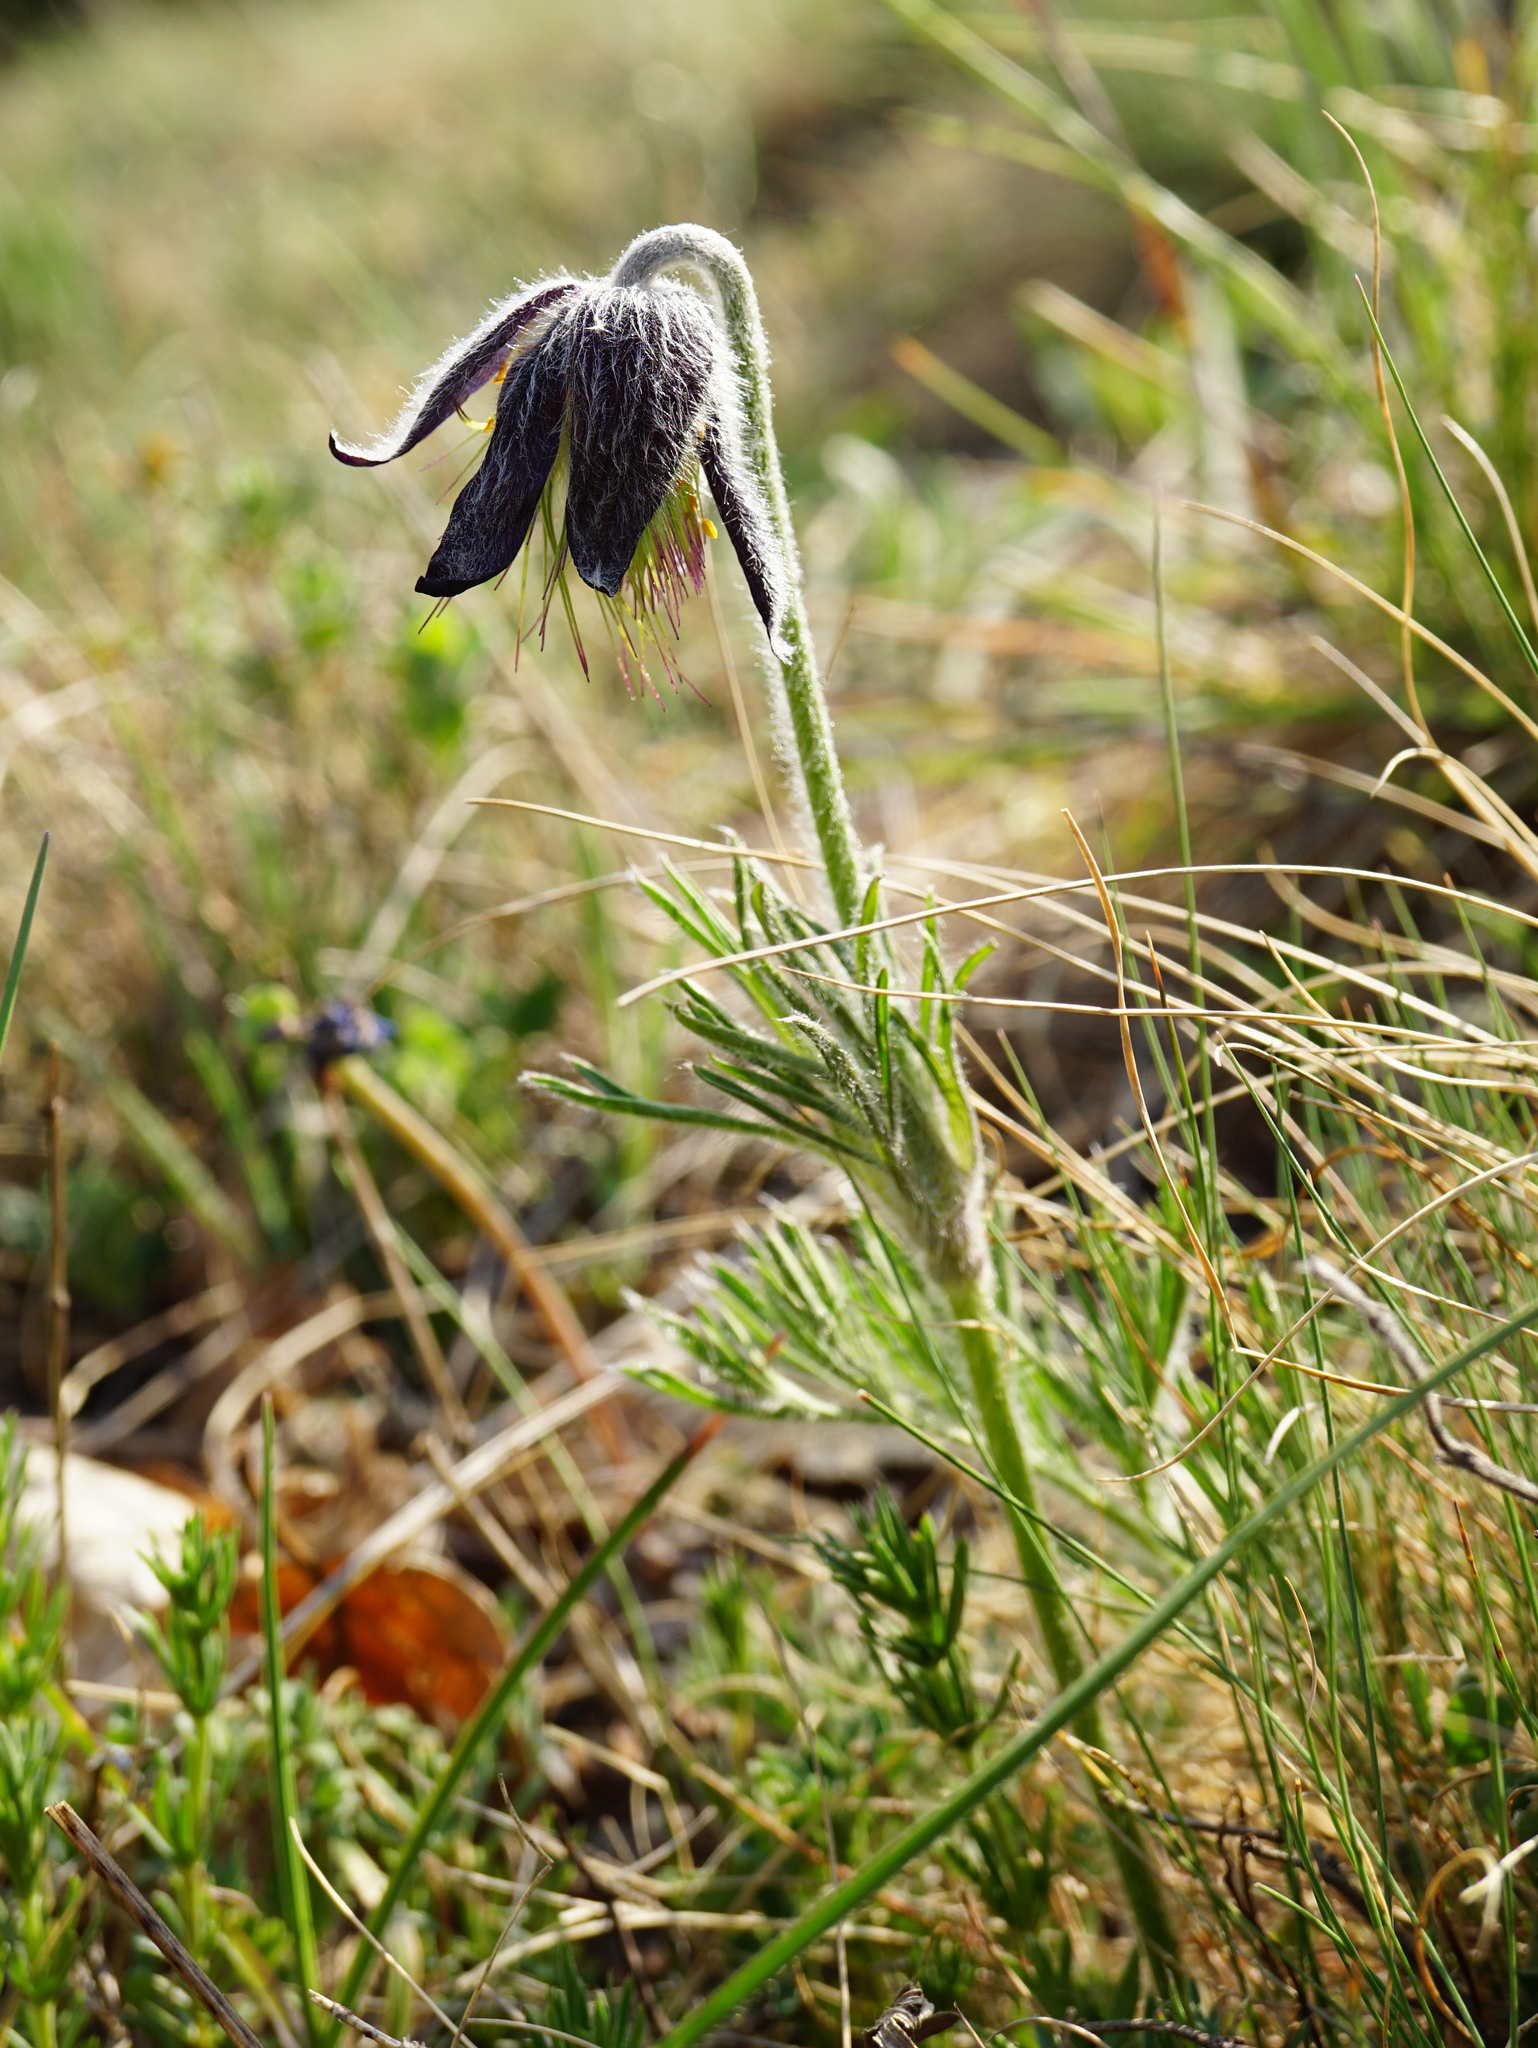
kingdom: Plantae
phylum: Tracheophyta
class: Magnoliopsida
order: Ranunculales
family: Ranunculaceae
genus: Pulsatilla
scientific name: Pulsatilla pratensis
